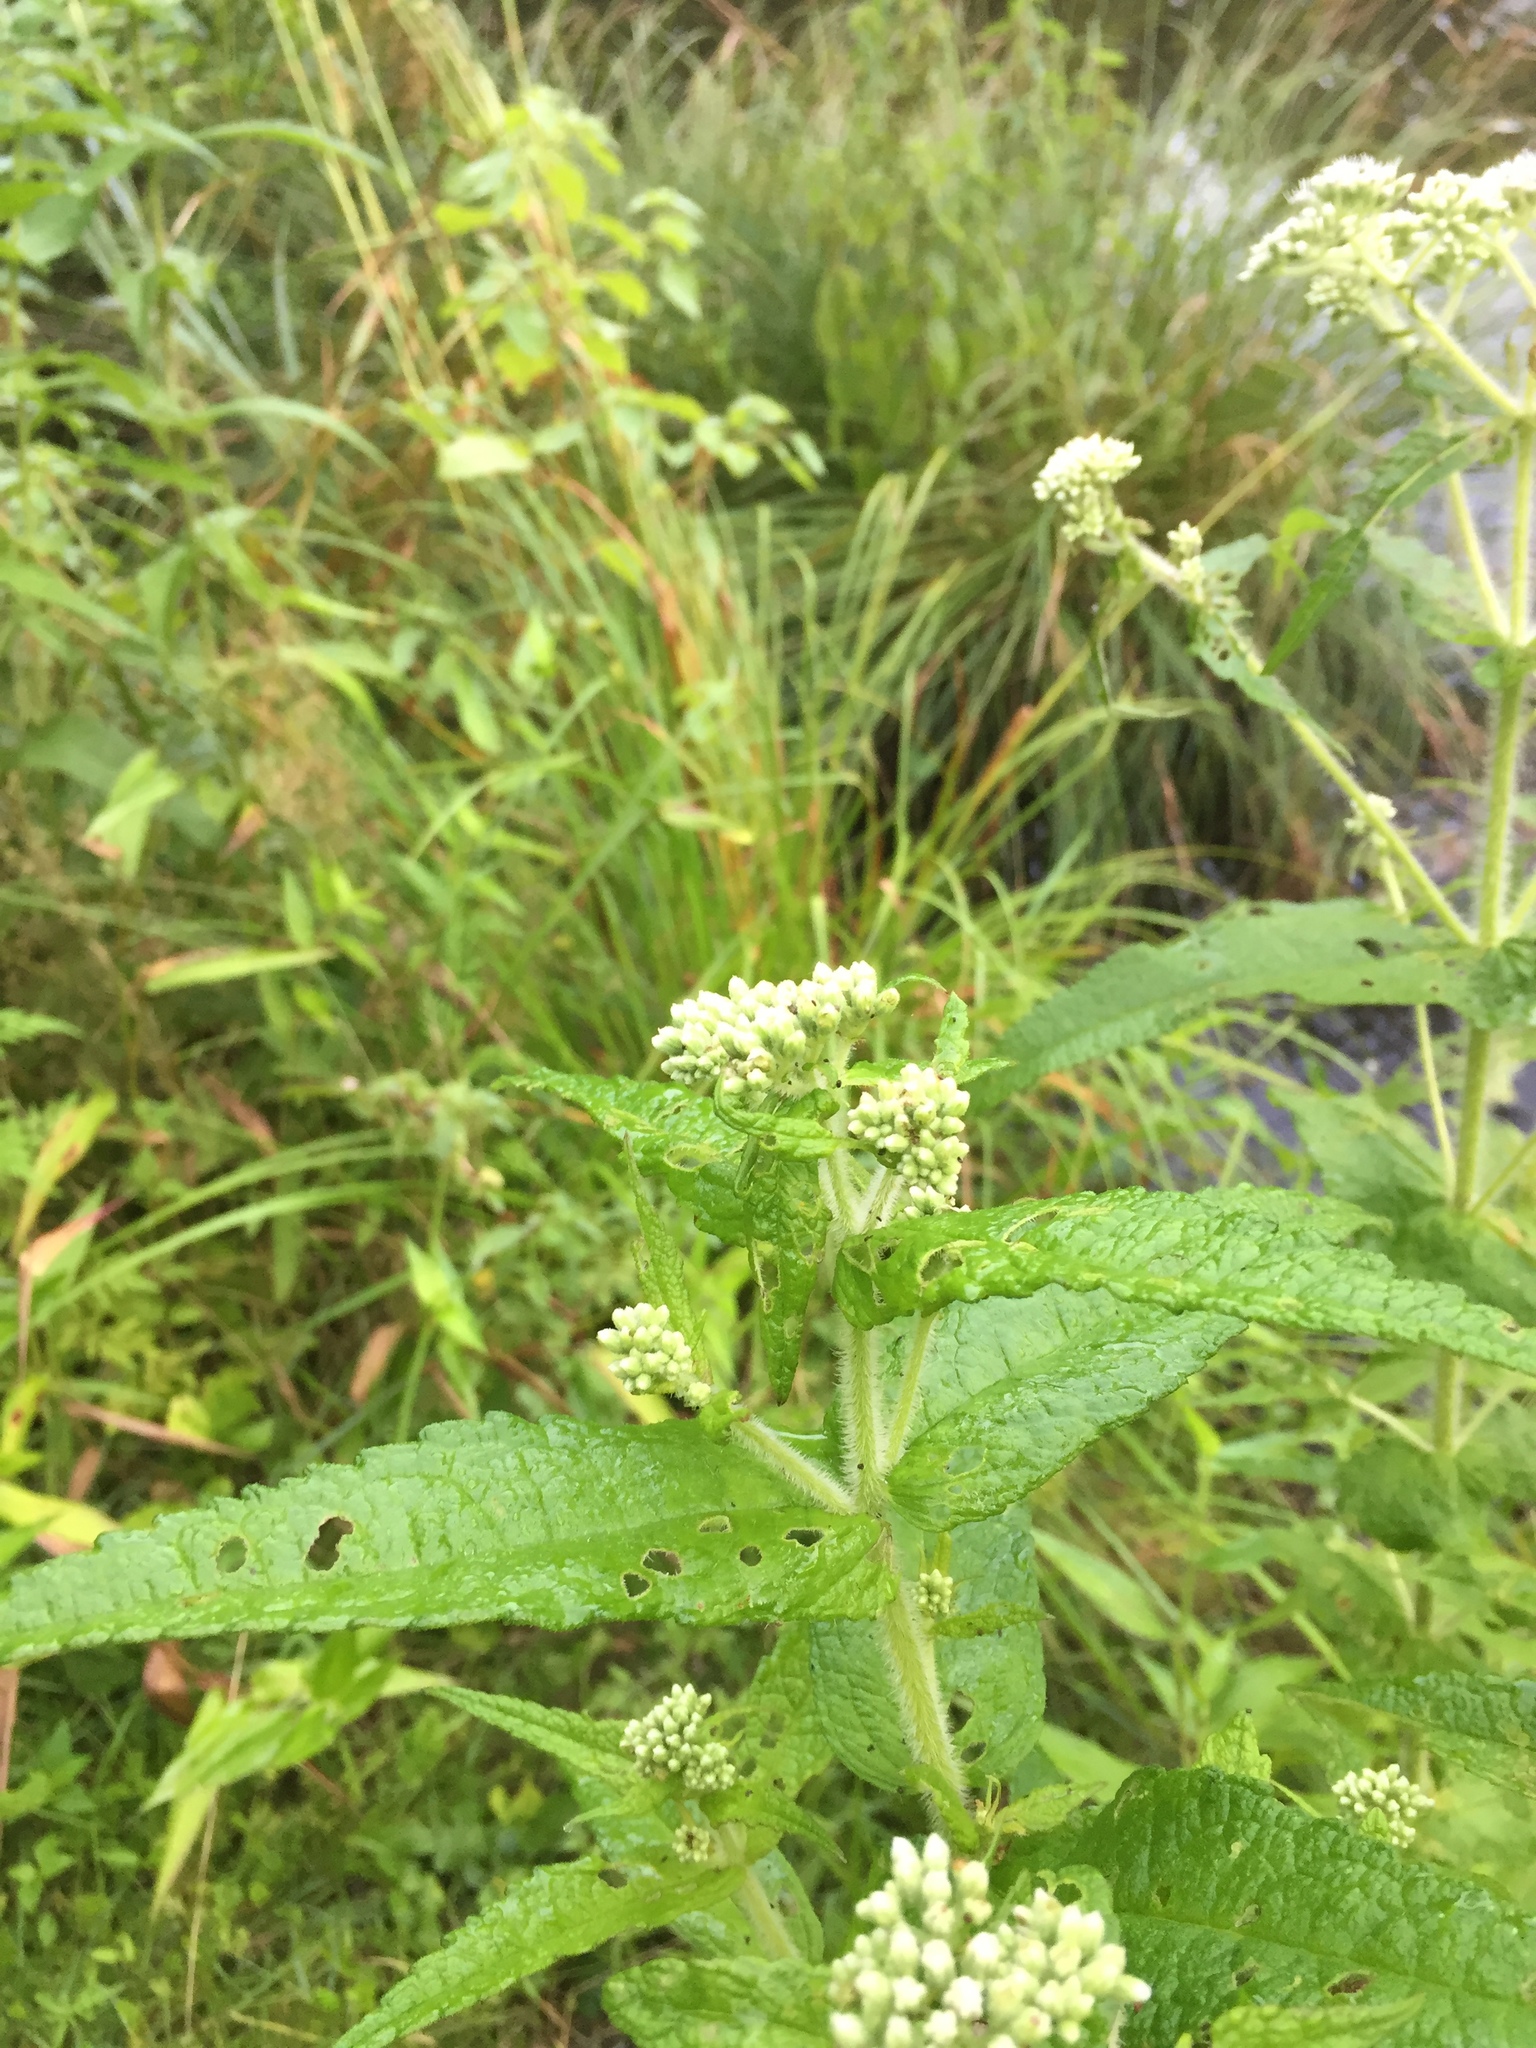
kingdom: Plantae
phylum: Tracheophyta
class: Magnoliopsida
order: Asterales
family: Asteraceae
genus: Eupatorium
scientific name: Eupatorium perfoliatum
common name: Boneset
